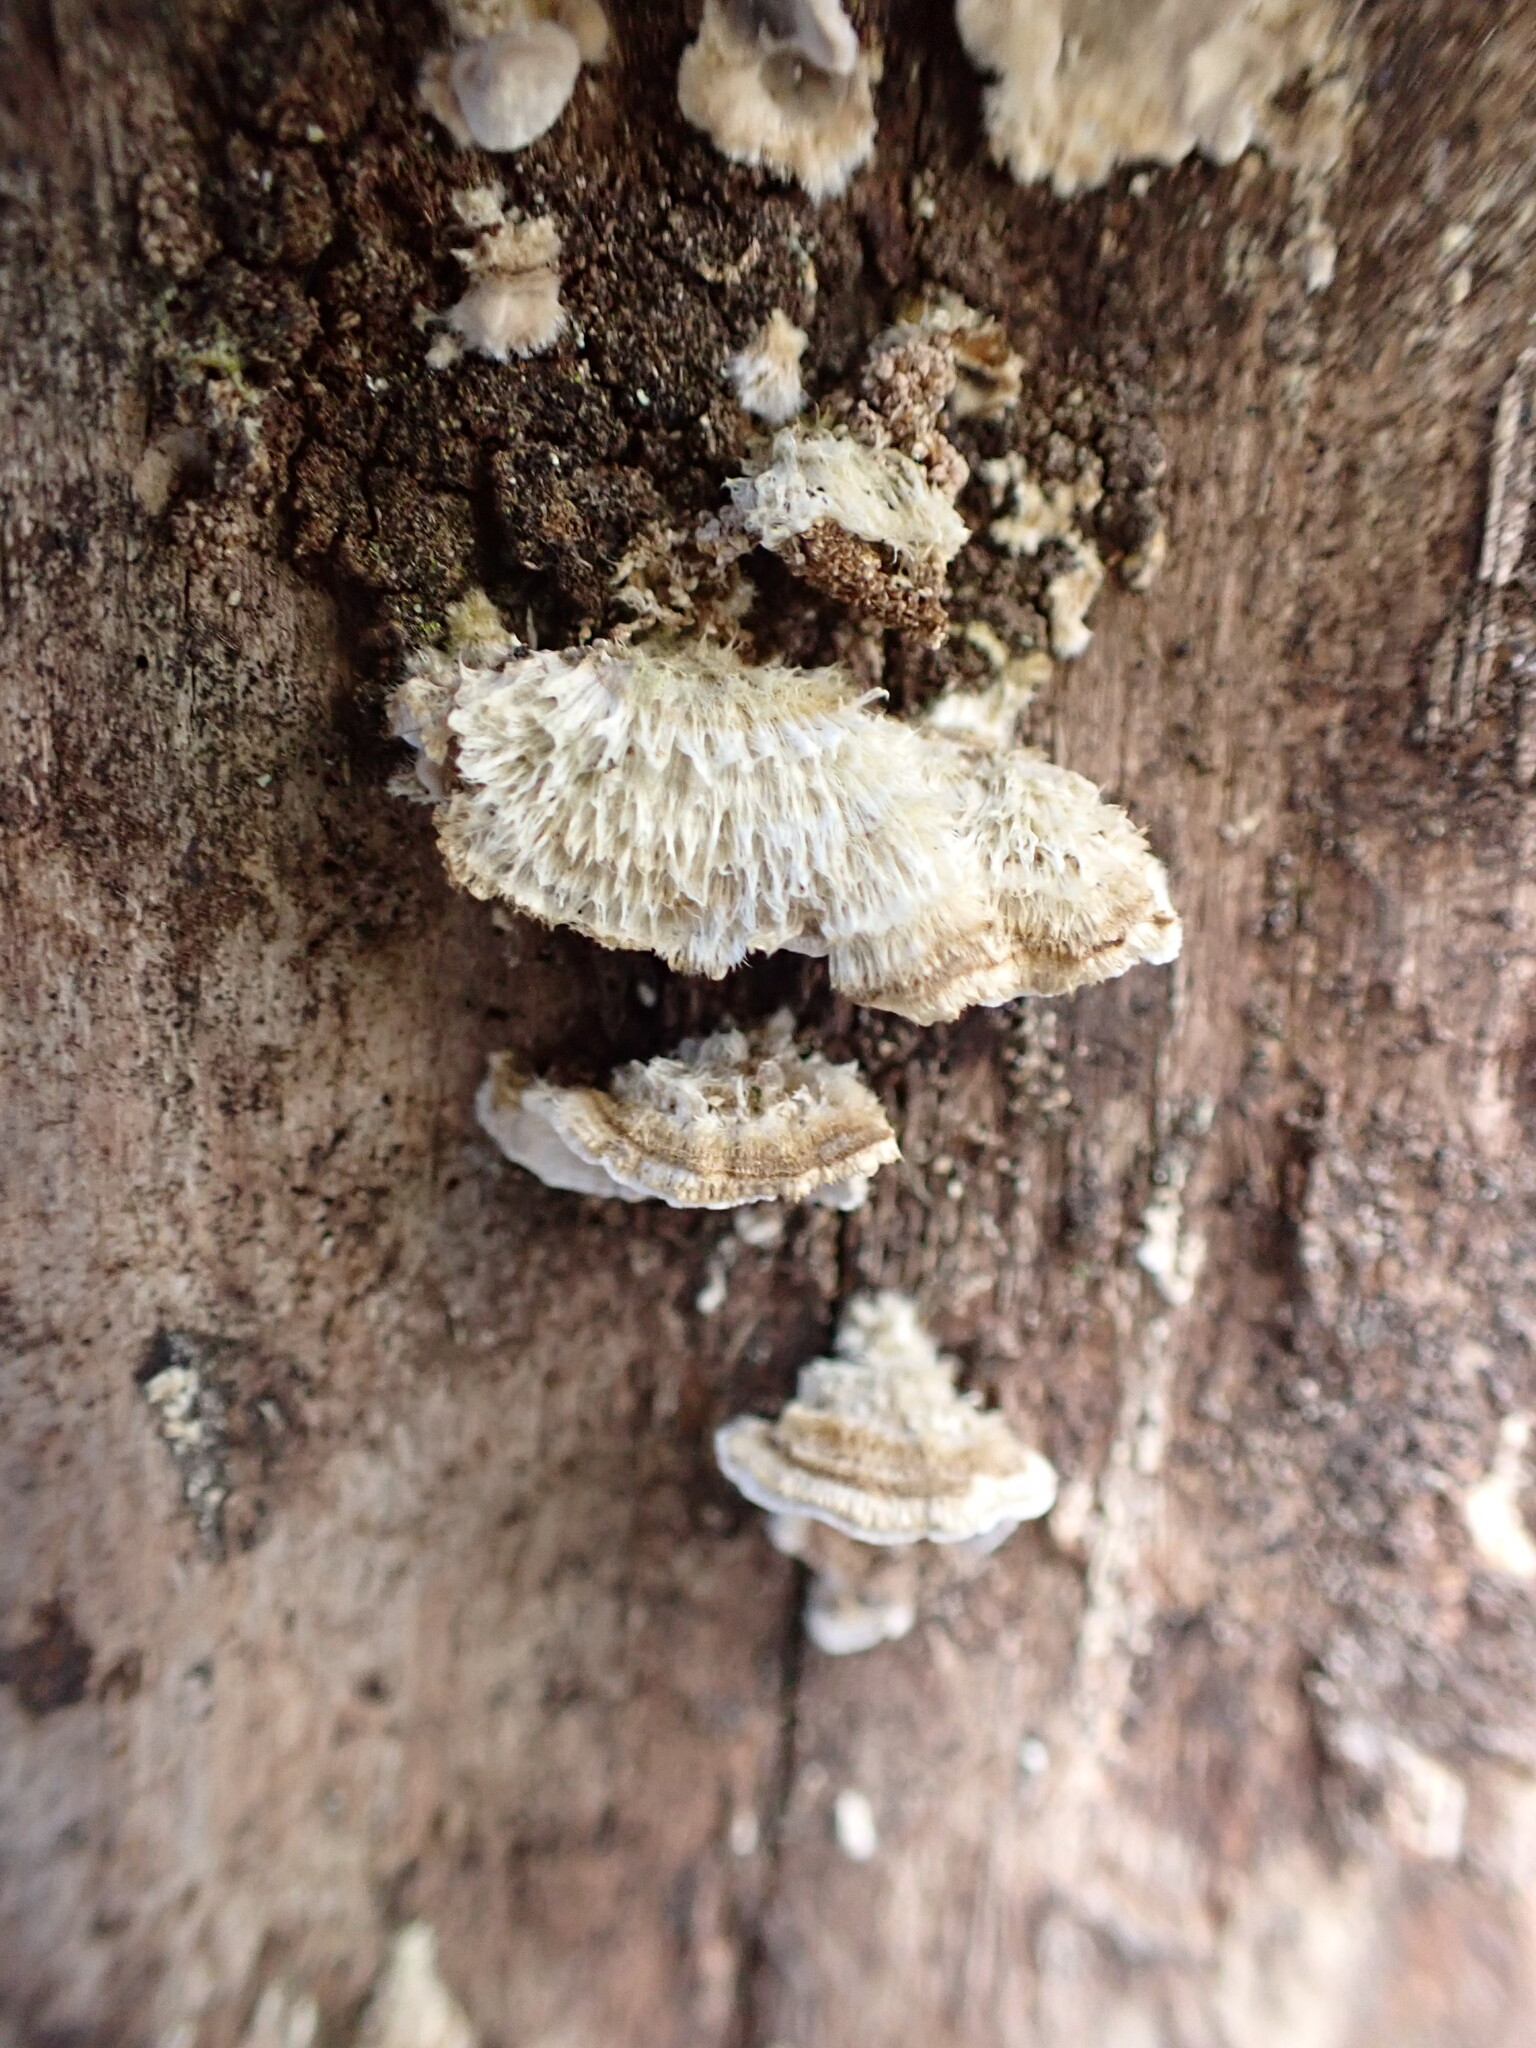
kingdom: Fungi
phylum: Basidiomycota
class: Agaricomycetes
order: Polyporales
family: Polyporaceae
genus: Trametes
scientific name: Trametes hirsuta
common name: Hairy bracket
